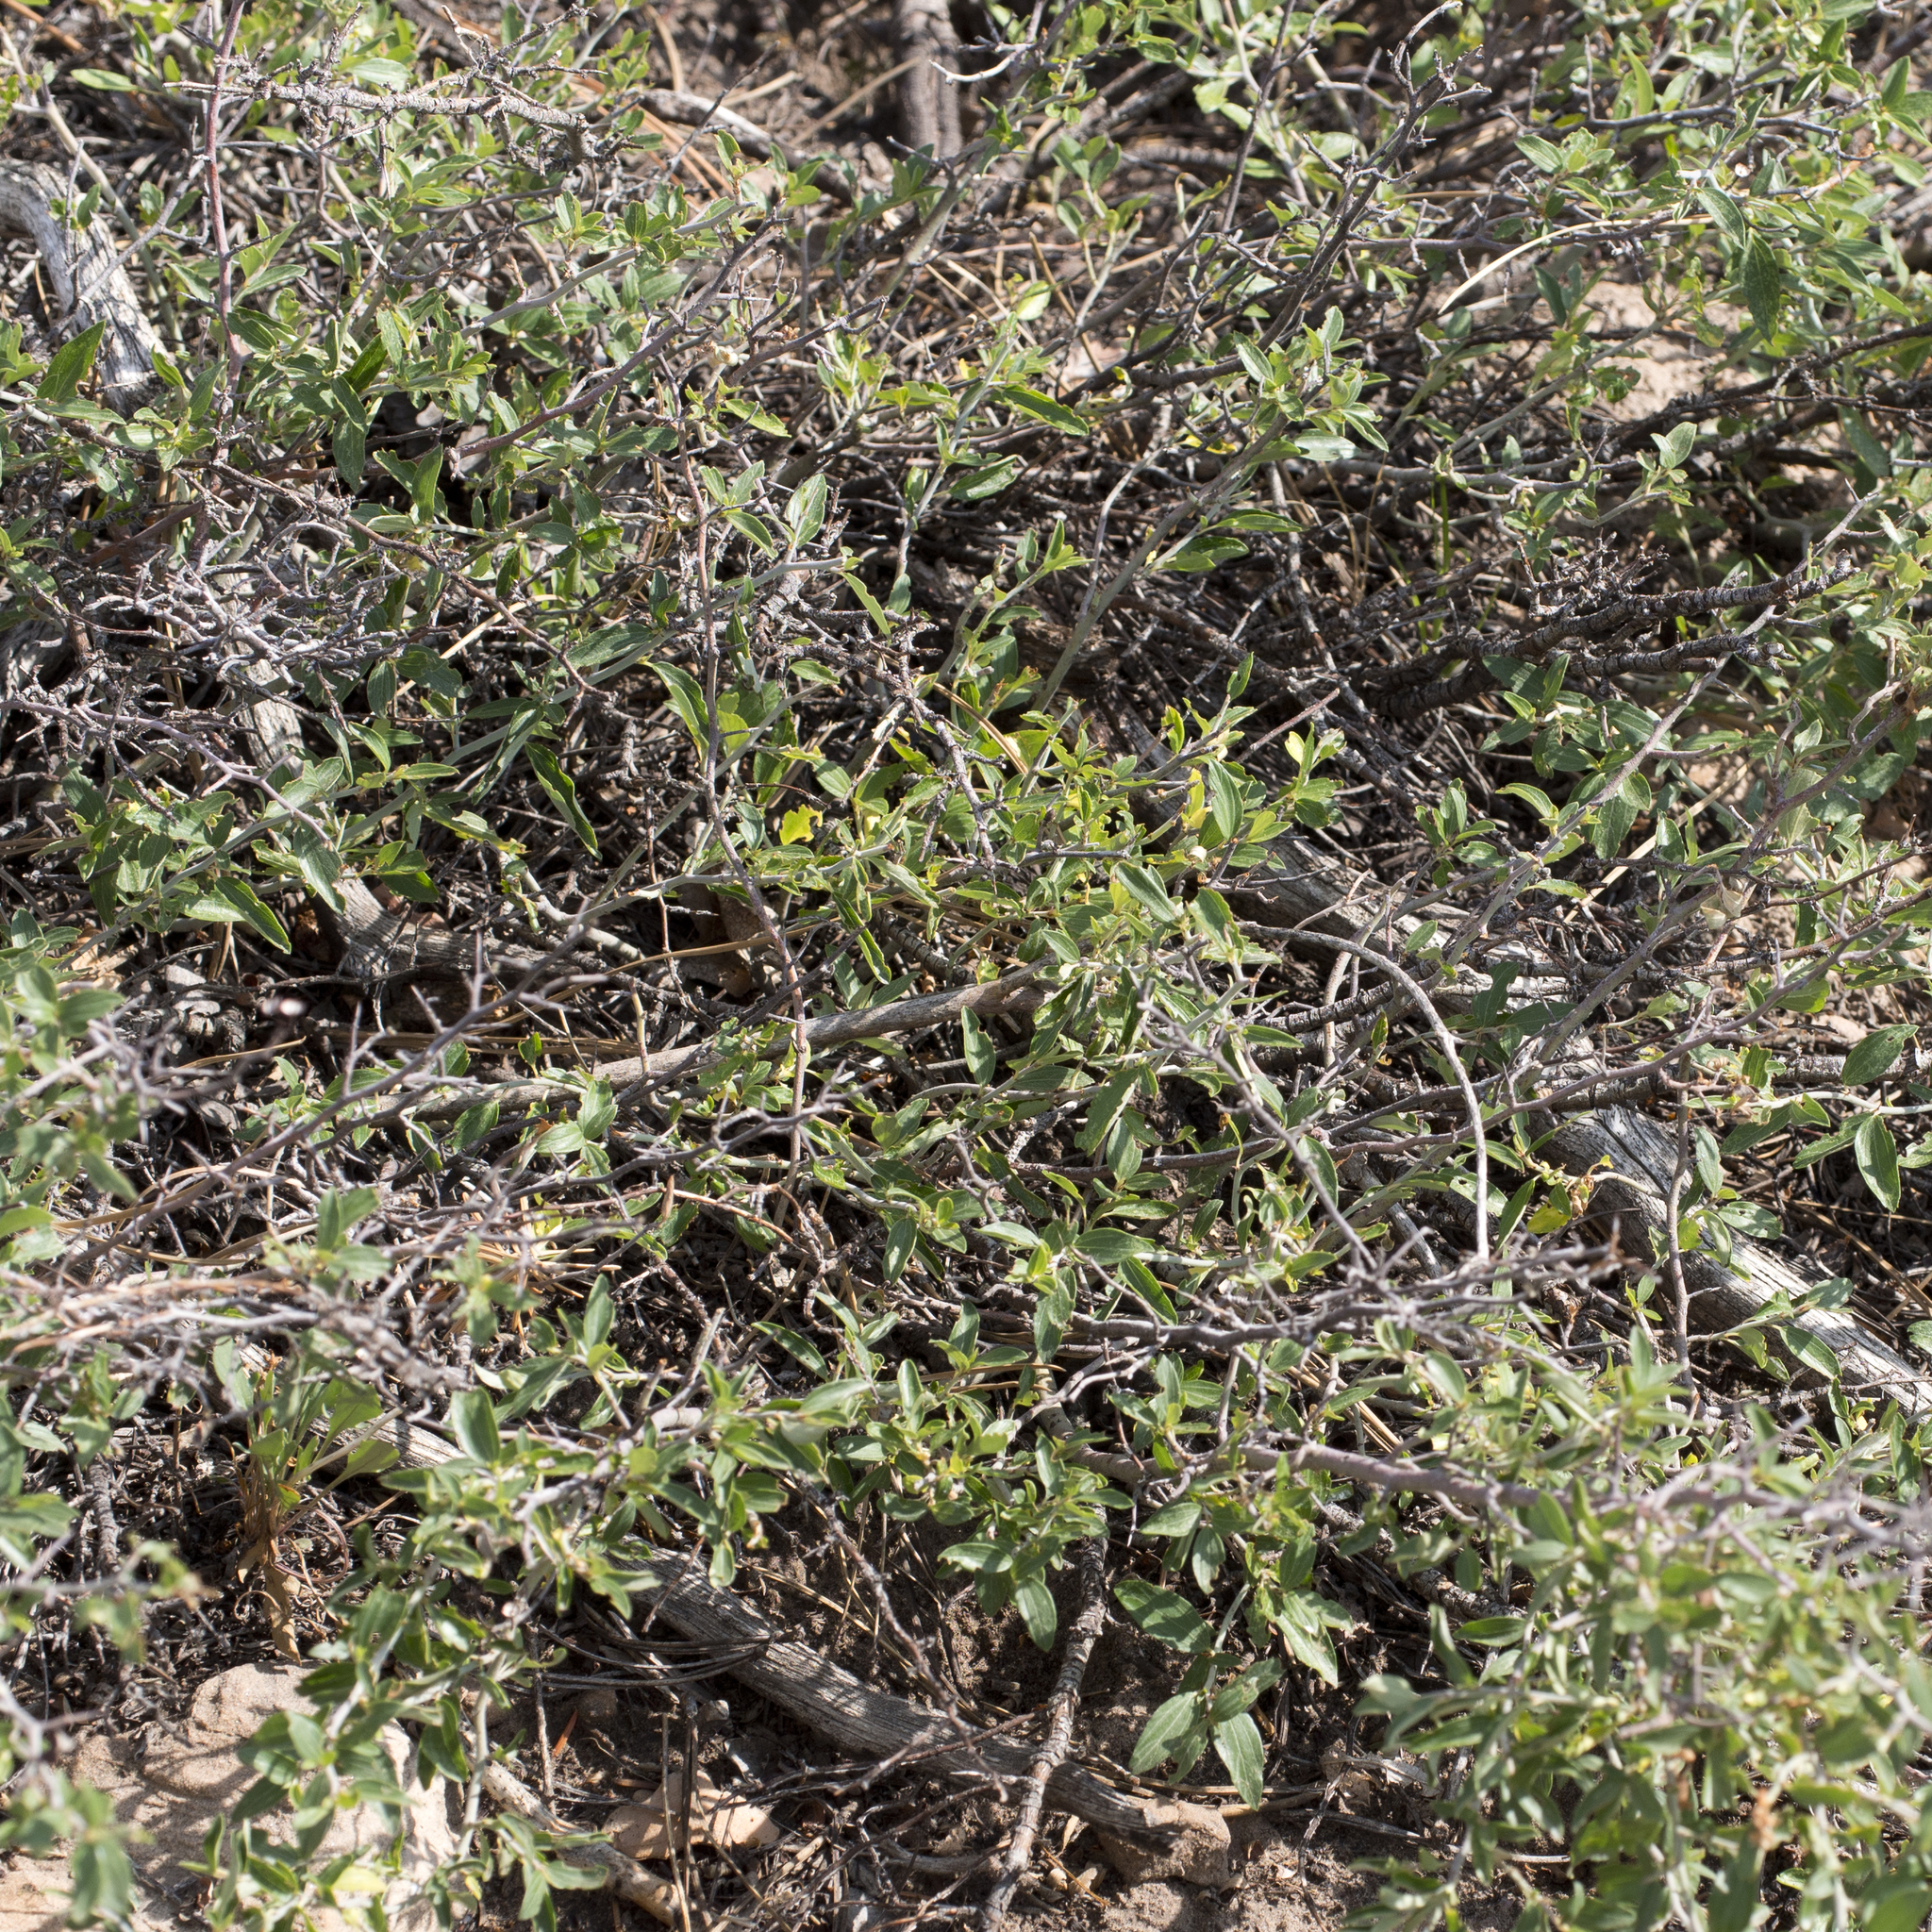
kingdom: Plantae
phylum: Tracheophyta
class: Magnoliopsida
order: Rosales
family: Rhamnaceae
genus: Ceanothus
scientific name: Ceanothus fendleri
